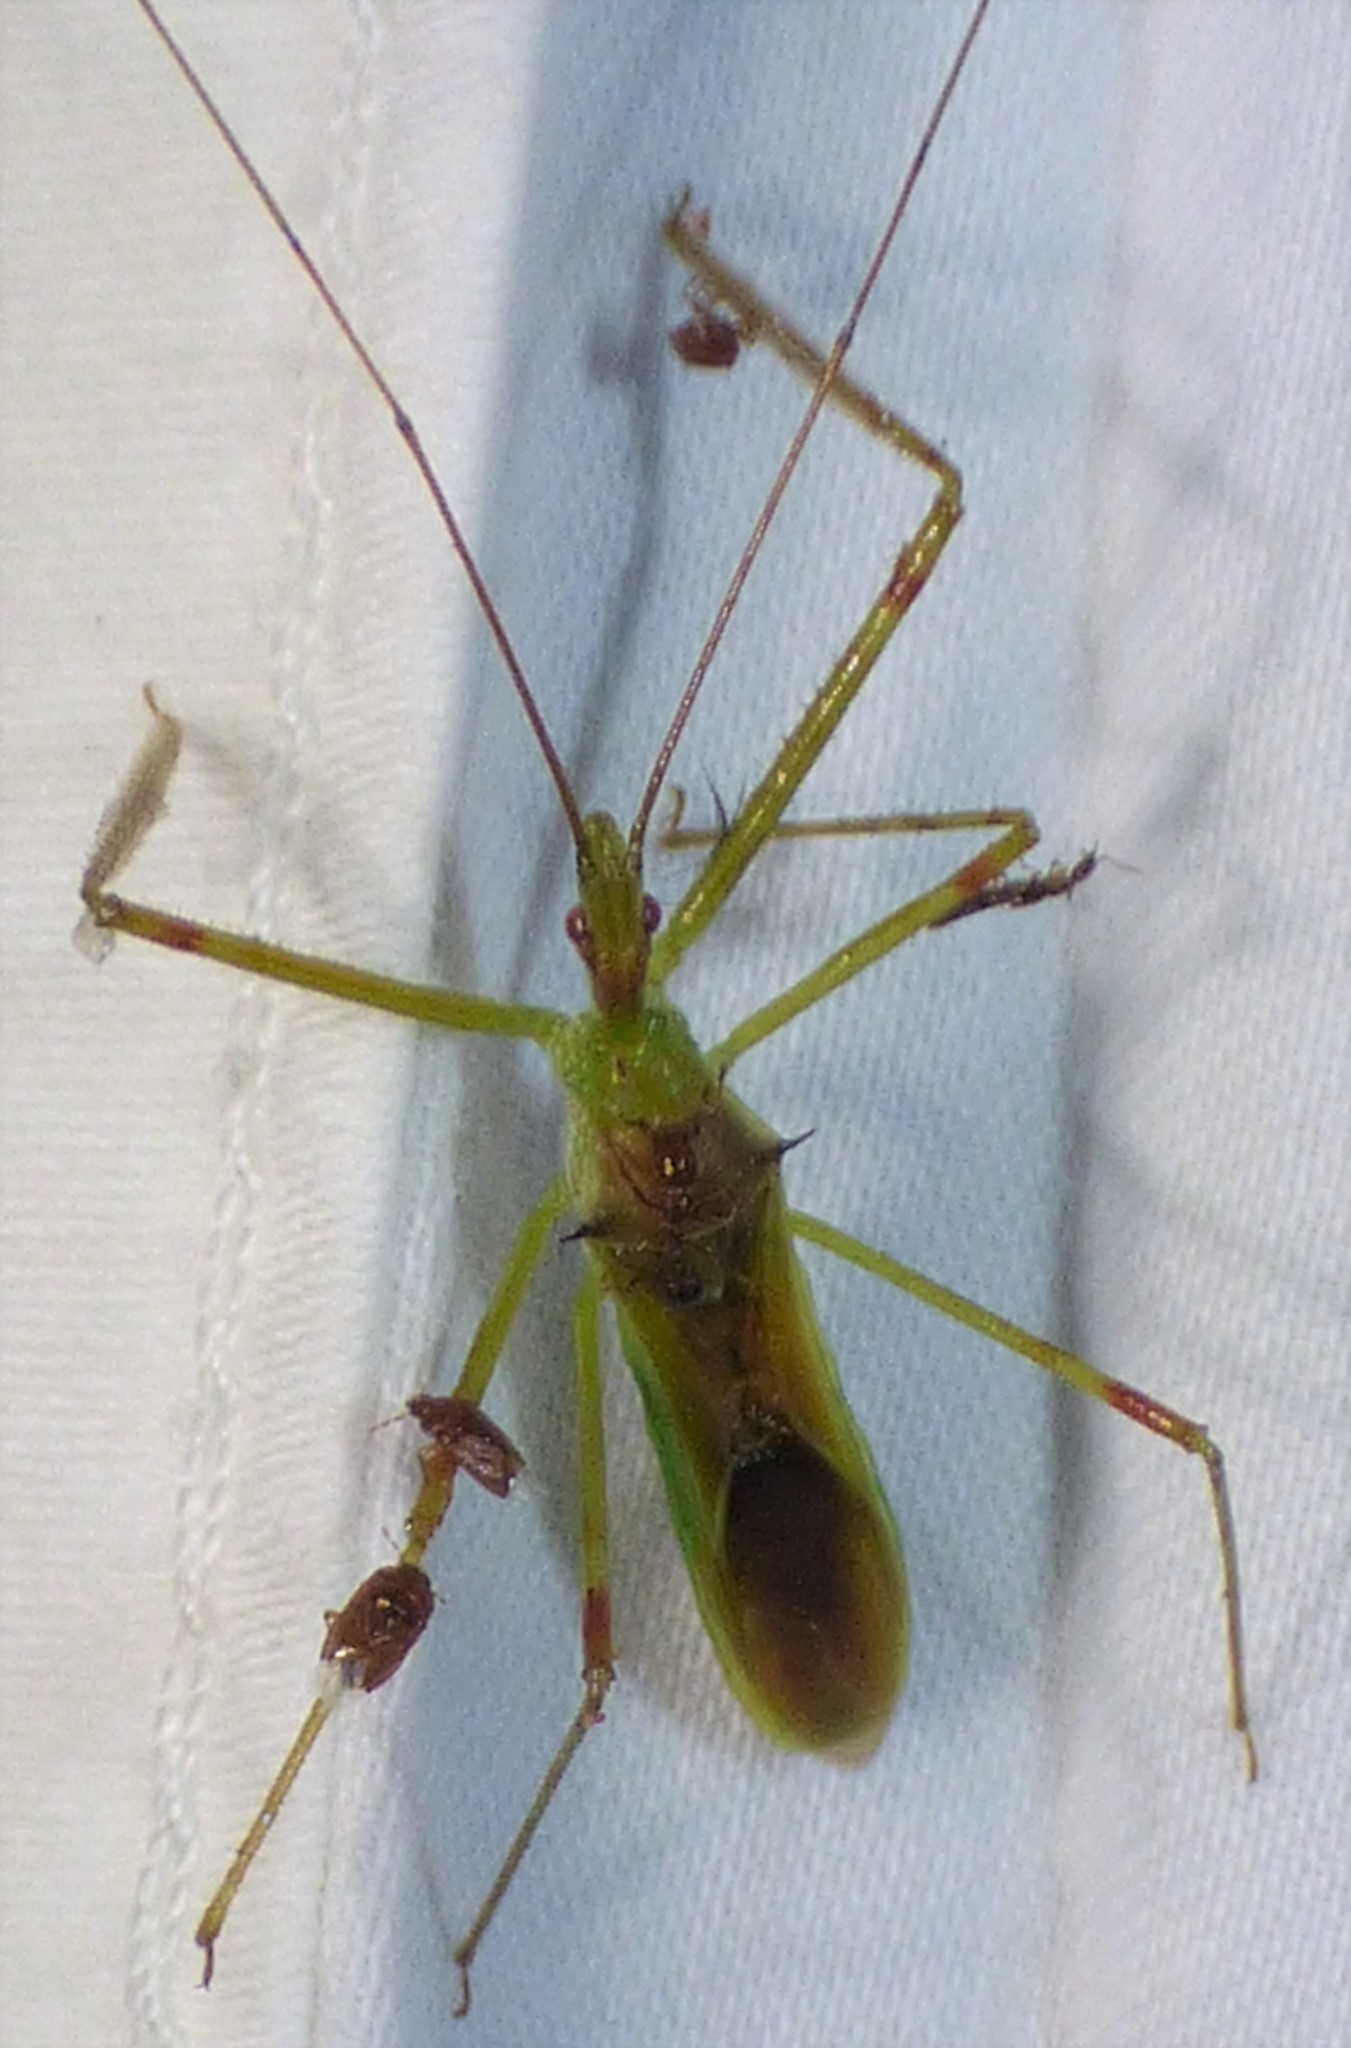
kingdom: Animalia
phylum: Arthropoda
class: Insecta
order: Hemiptera
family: Reduviidae
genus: Zelus
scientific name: Zelus luridus
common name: Pale green assassin bug
